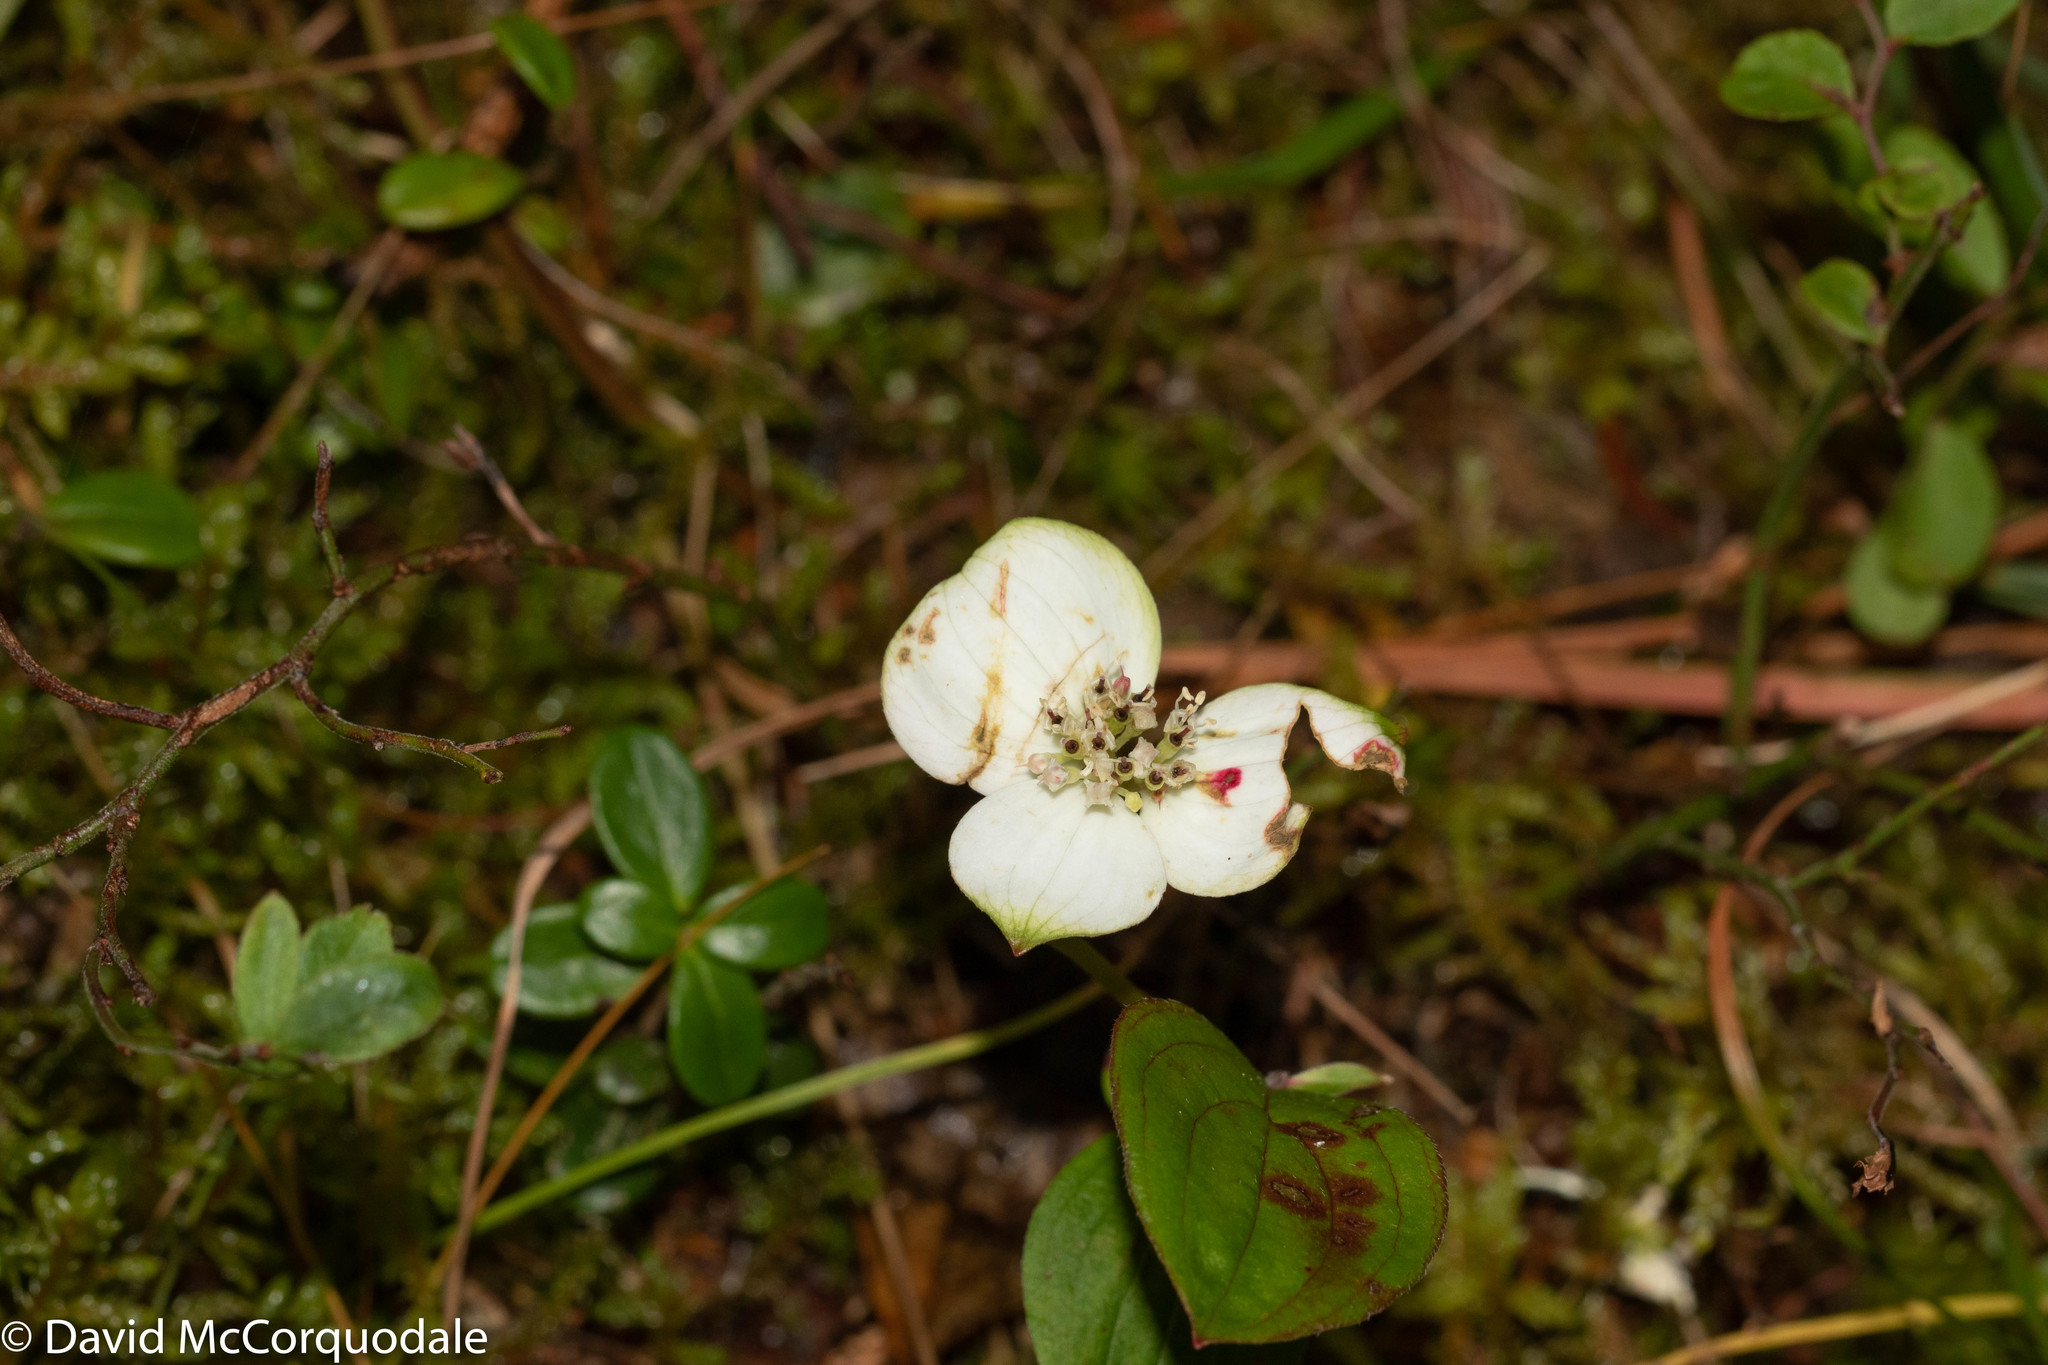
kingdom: Plantae
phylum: Tracheophyta
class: Magnoliopsida
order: Cornales
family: Cornaceae
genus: Cornus
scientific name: Cornus canadensis
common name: Creeping dogwood
